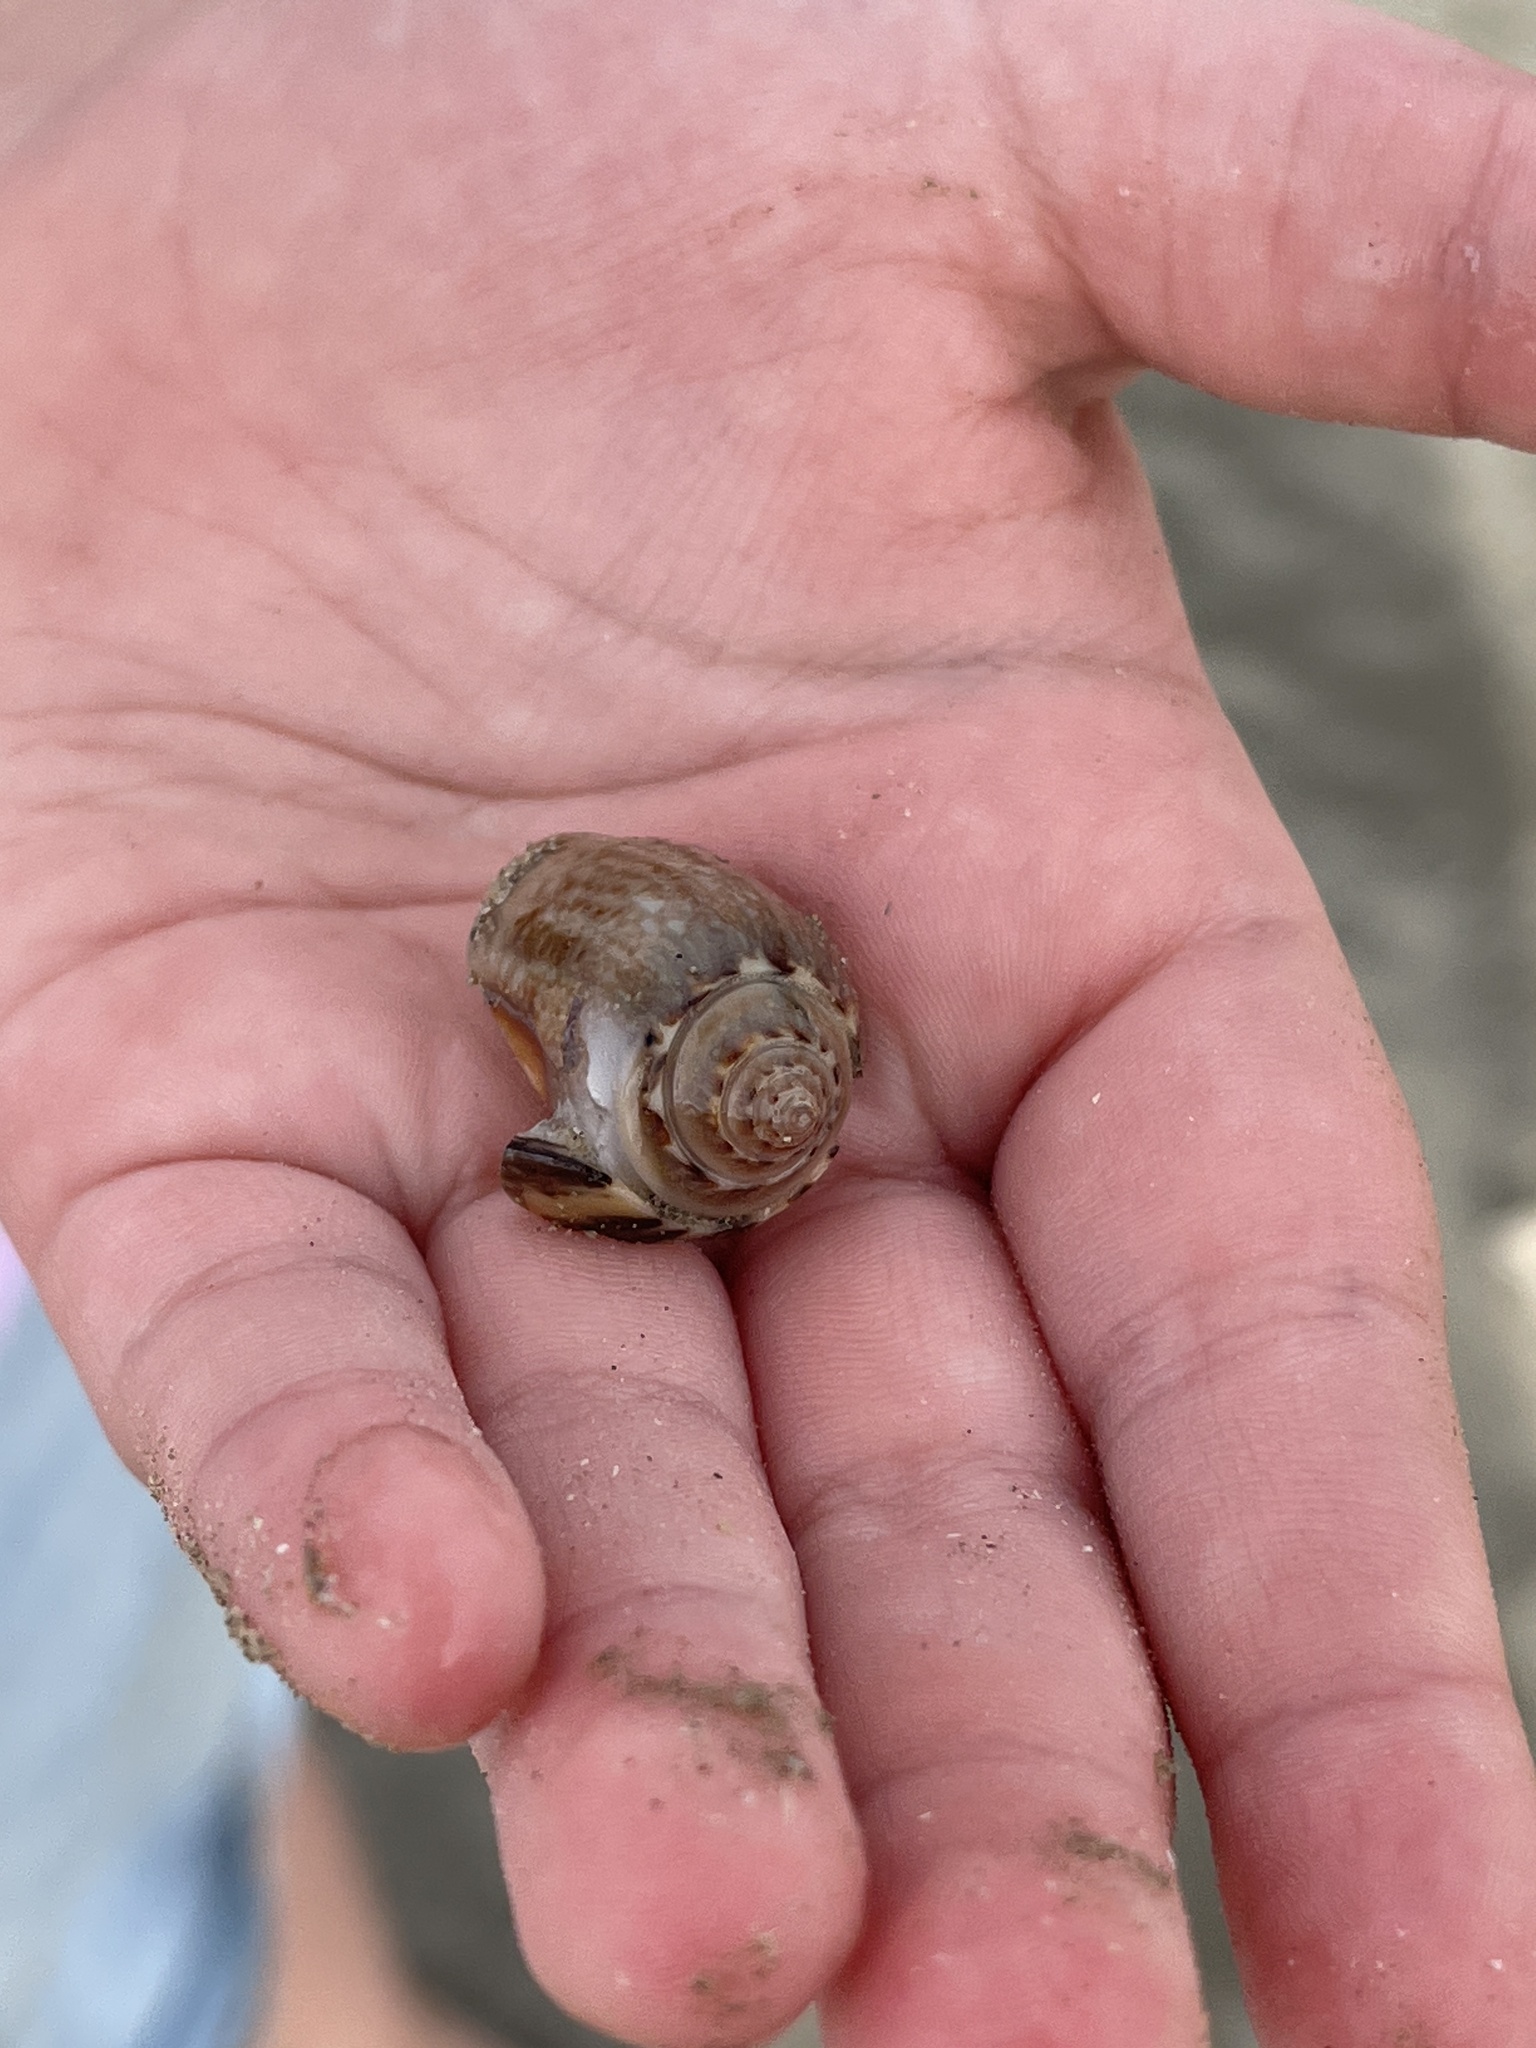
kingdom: Animalia
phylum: Mollusca
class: Gastropoda
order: Neogastropoda
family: Olividae
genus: Oliva
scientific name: Oliva sayana
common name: Lettered olive
